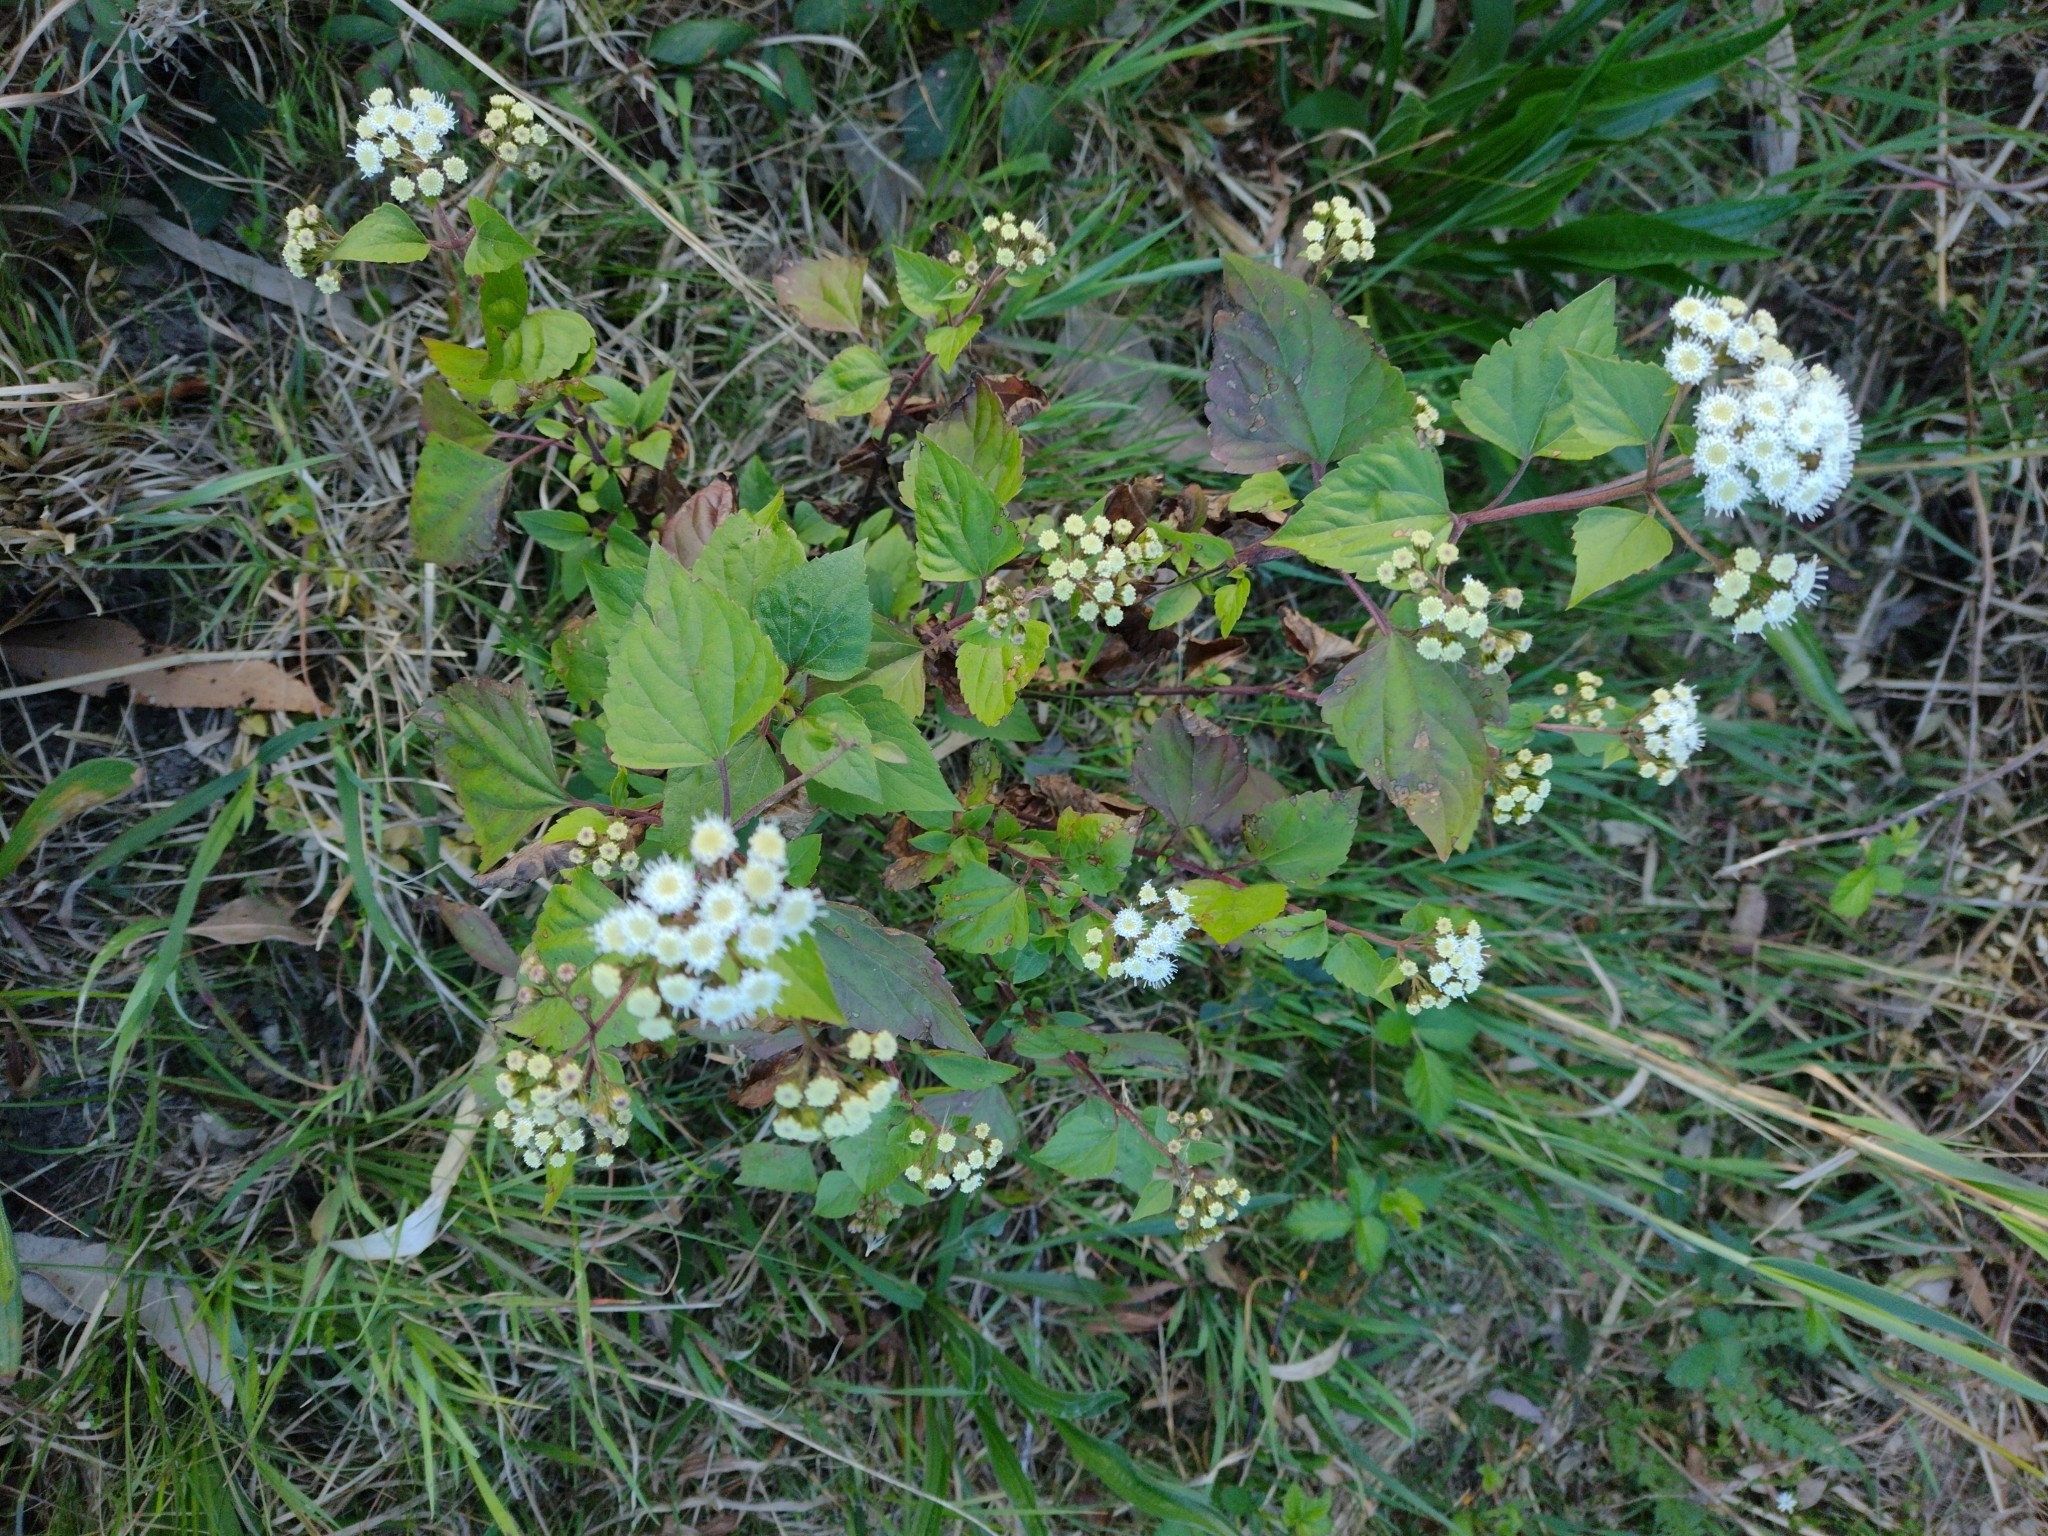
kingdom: Plantae
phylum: Tracheophyta
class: Magnoliopsida
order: Asterales
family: Asteraceae
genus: Ageratina
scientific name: Ageratina adenophora
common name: Sticky snakeroot
